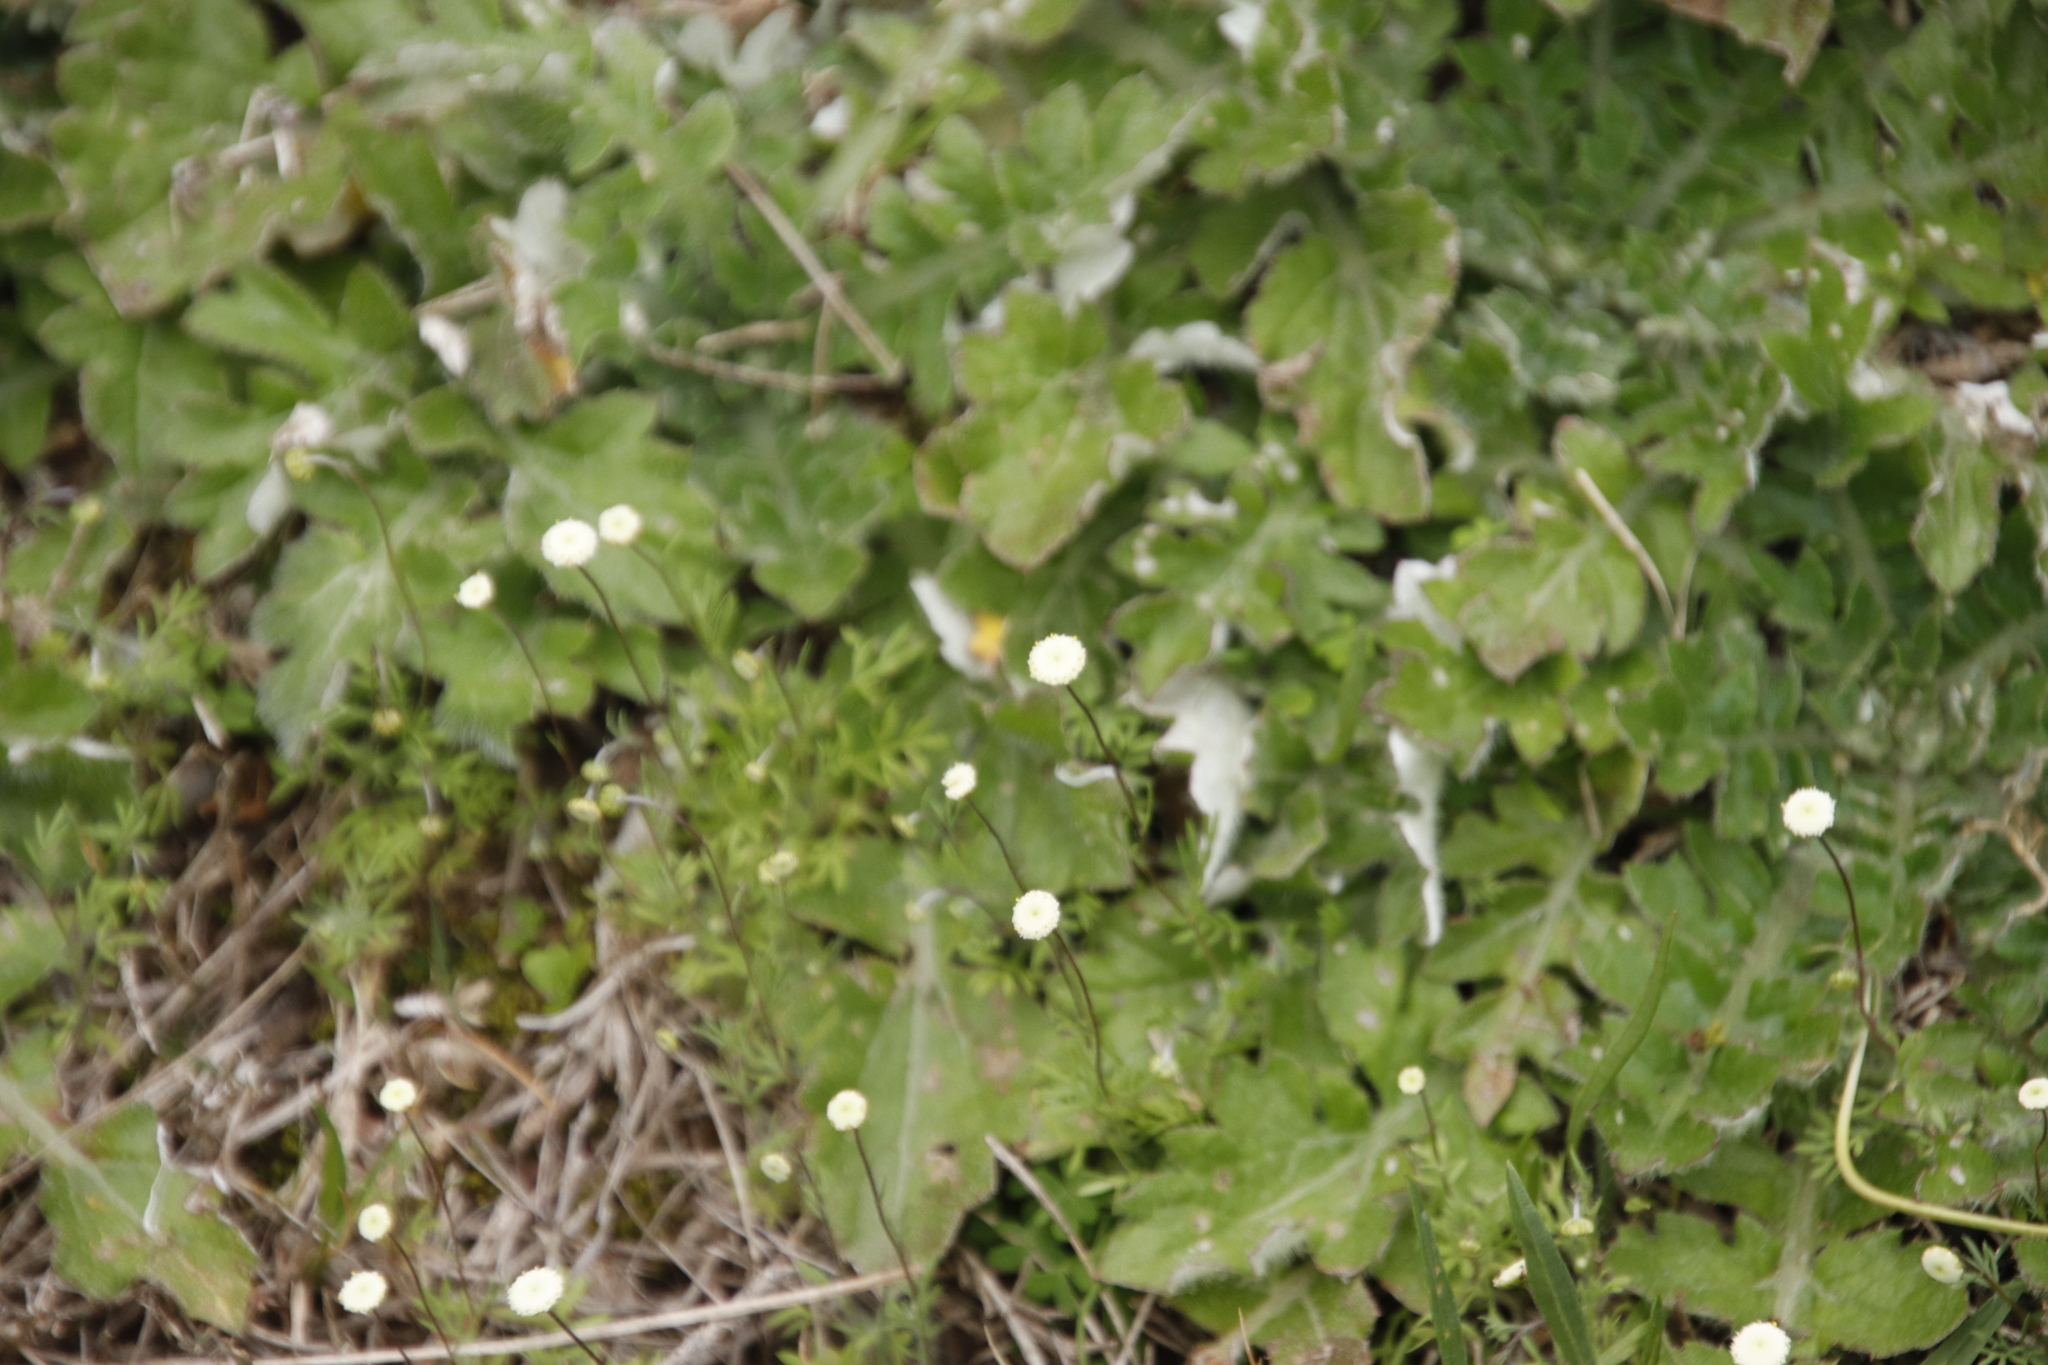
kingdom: Plantae
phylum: Tracheophyta
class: Magnoliopsida
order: Asterales
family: Asteraceae
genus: Arctotheca
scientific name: Arctotheca prostrata
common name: Capeweed
